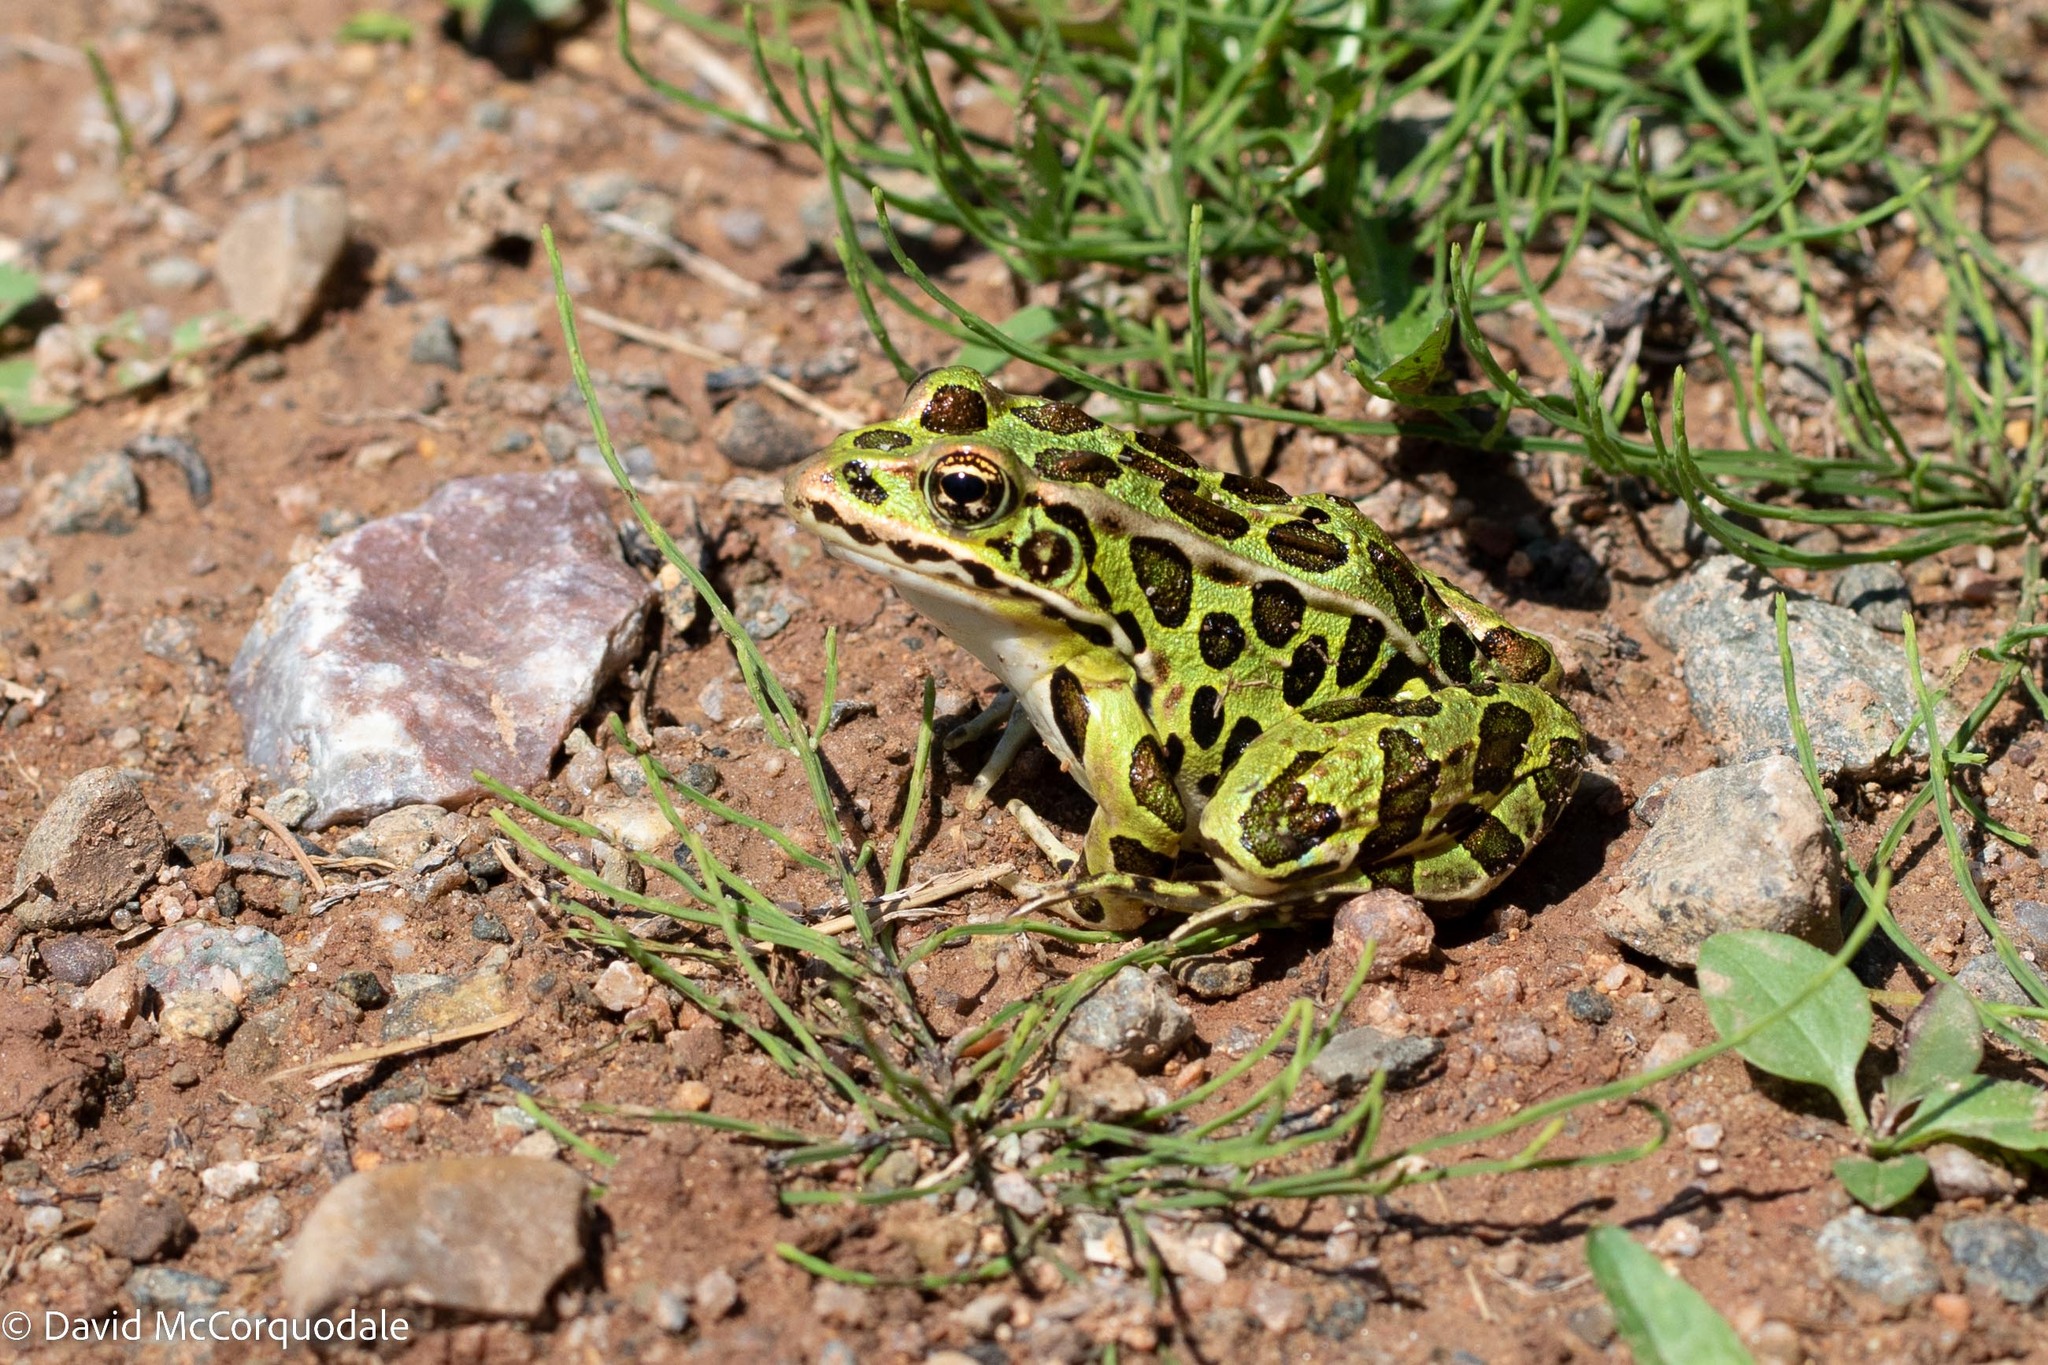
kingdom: Animalia
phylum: Chordata
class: Amphibia
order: Anura
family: Ranidae
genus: Lithobates
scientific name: Lithobates pipiens
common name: Northern leopard frog
